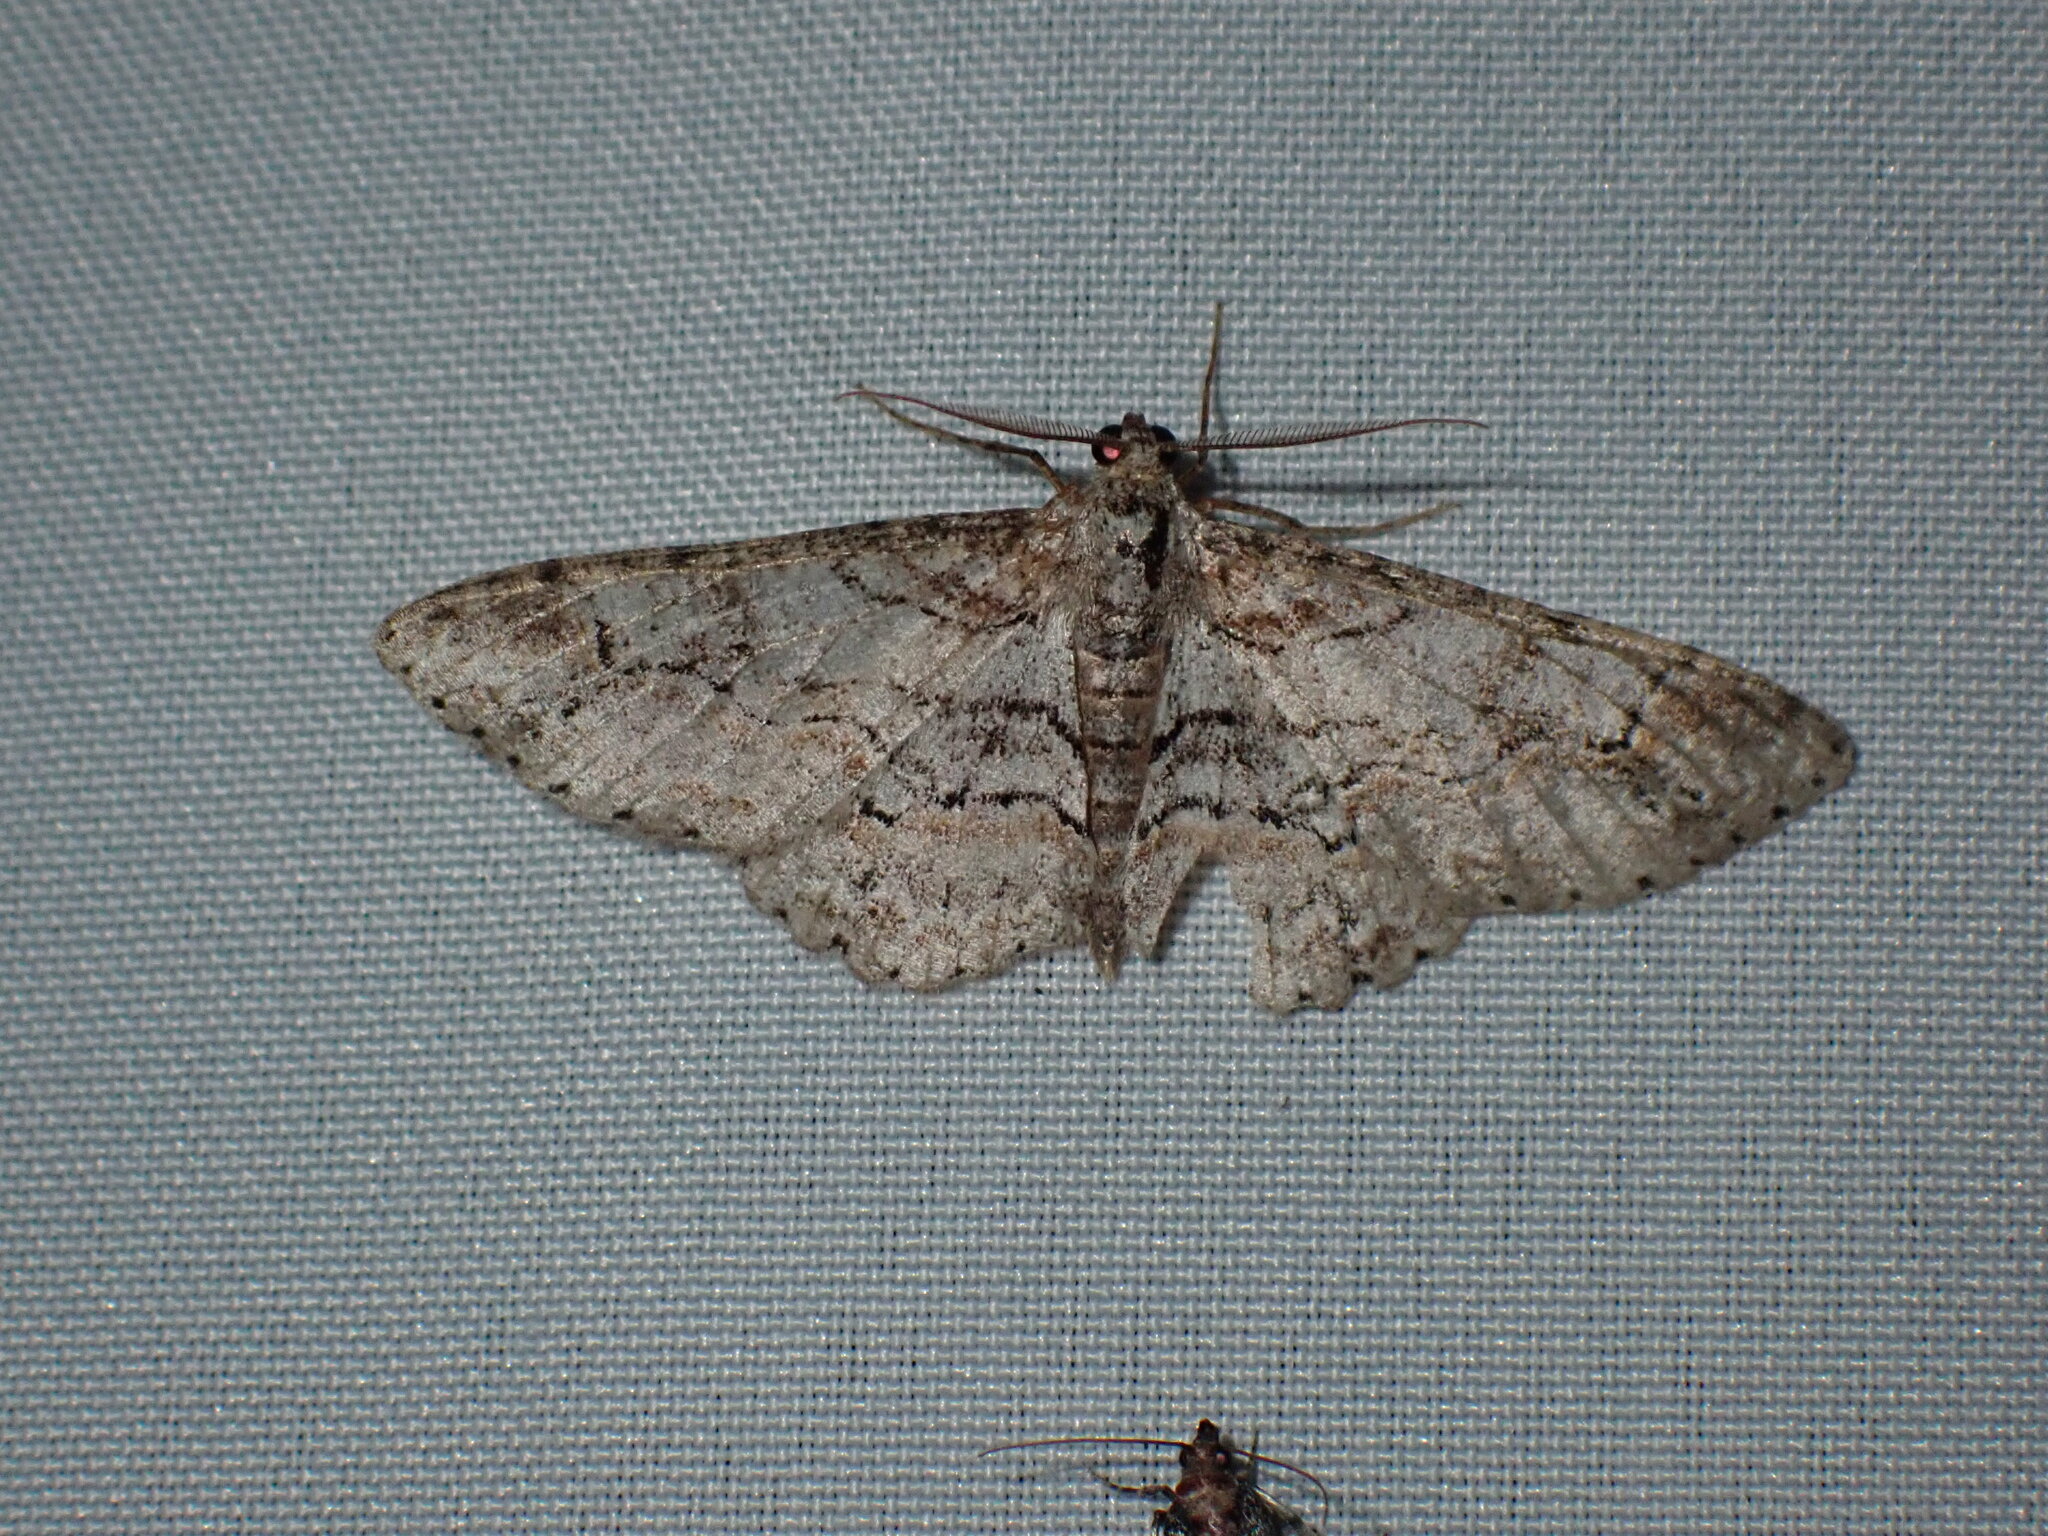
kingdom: Animalia
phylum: Arthropoda
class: Insecta
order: Lepidoptera
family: Geometridae
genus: Iridopsis
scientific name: Iridopsis emasculatum
